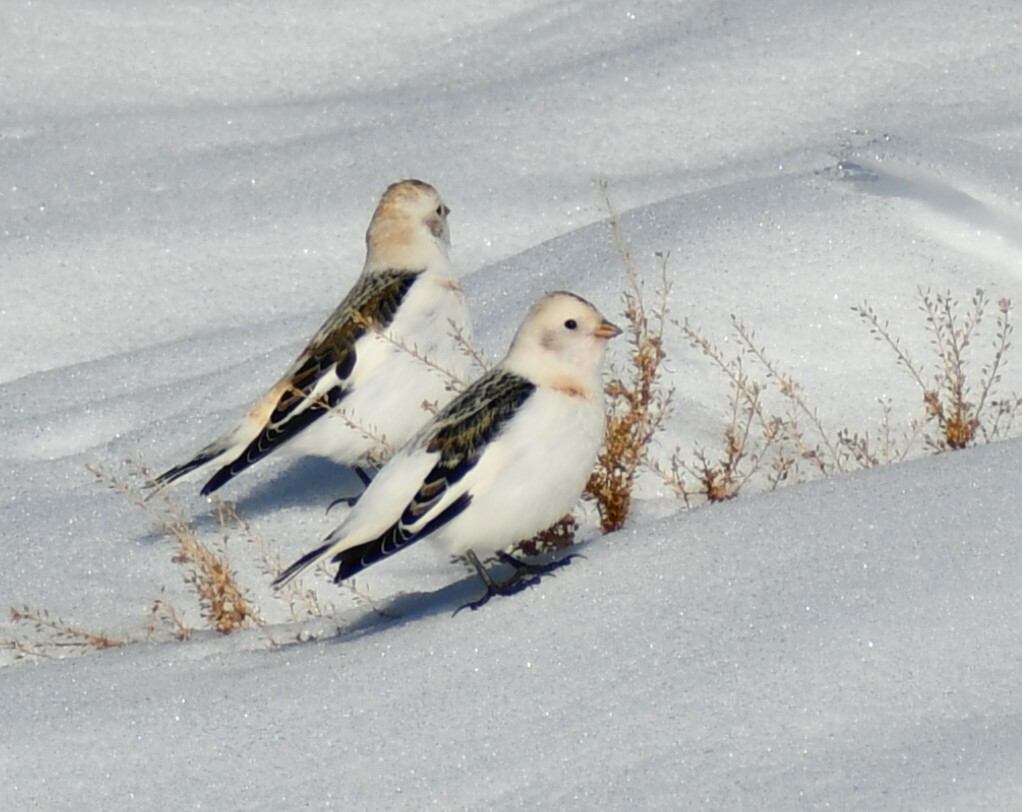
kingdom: Animalia
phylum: Chordata
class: Aves
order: Passeriformes
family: Calcariidae
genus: Plectrophenax
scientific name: Plectrophenax nivalis
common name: Snow bunting
